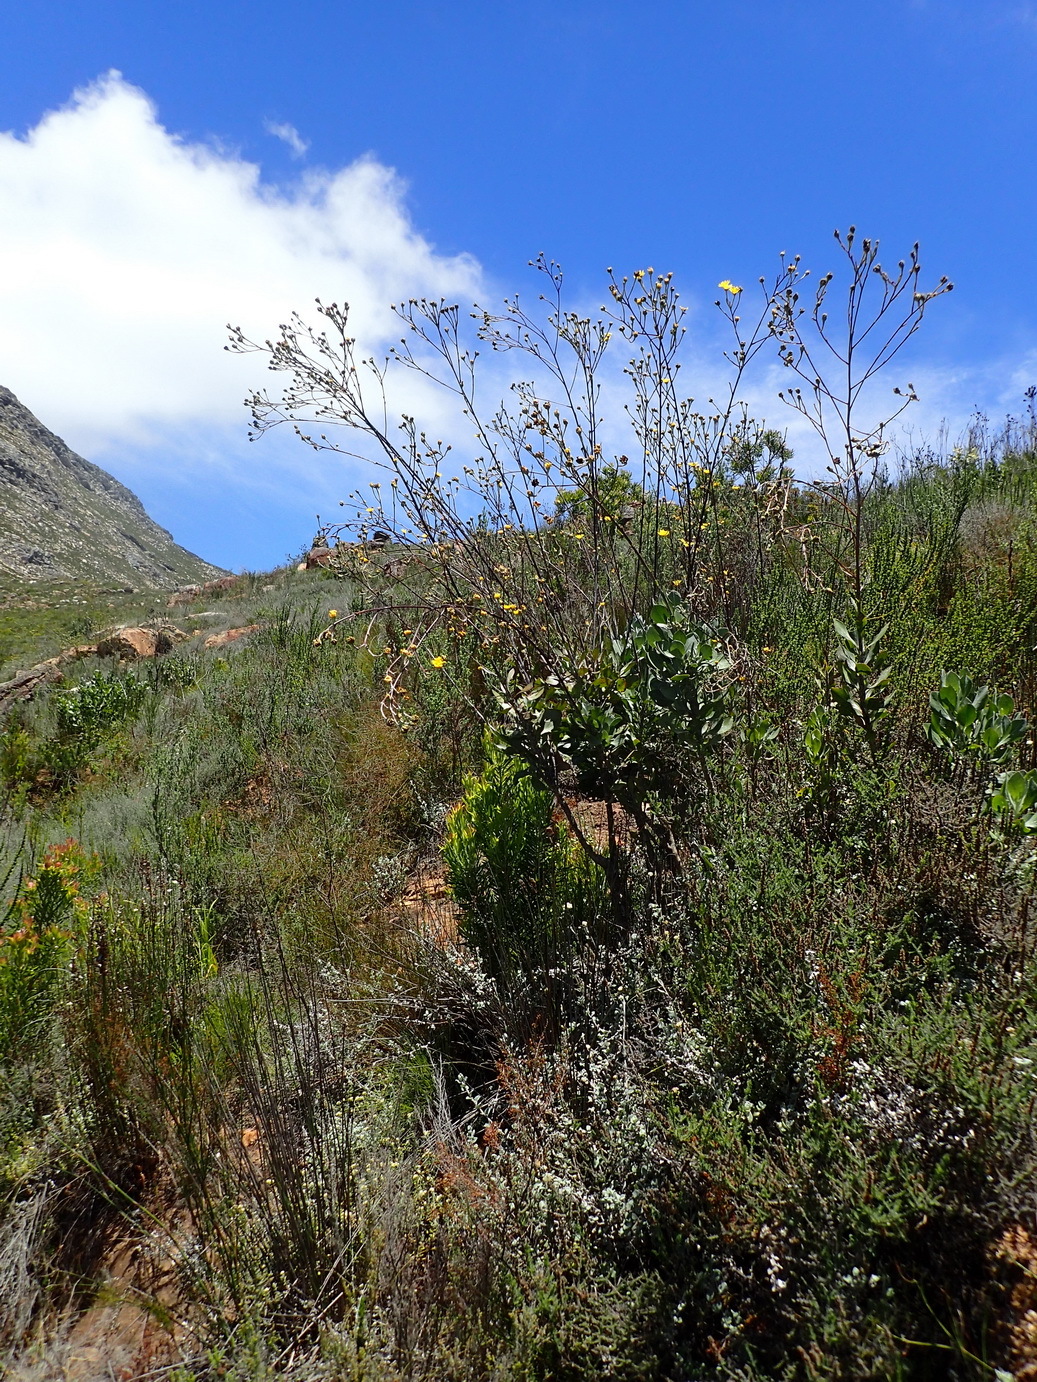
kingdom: Plantae
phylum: Tracheophyta
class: Magnoliopsida
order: Asterales
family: Asteraceae
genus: Osteospermum
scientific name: Osteospermum junceum
